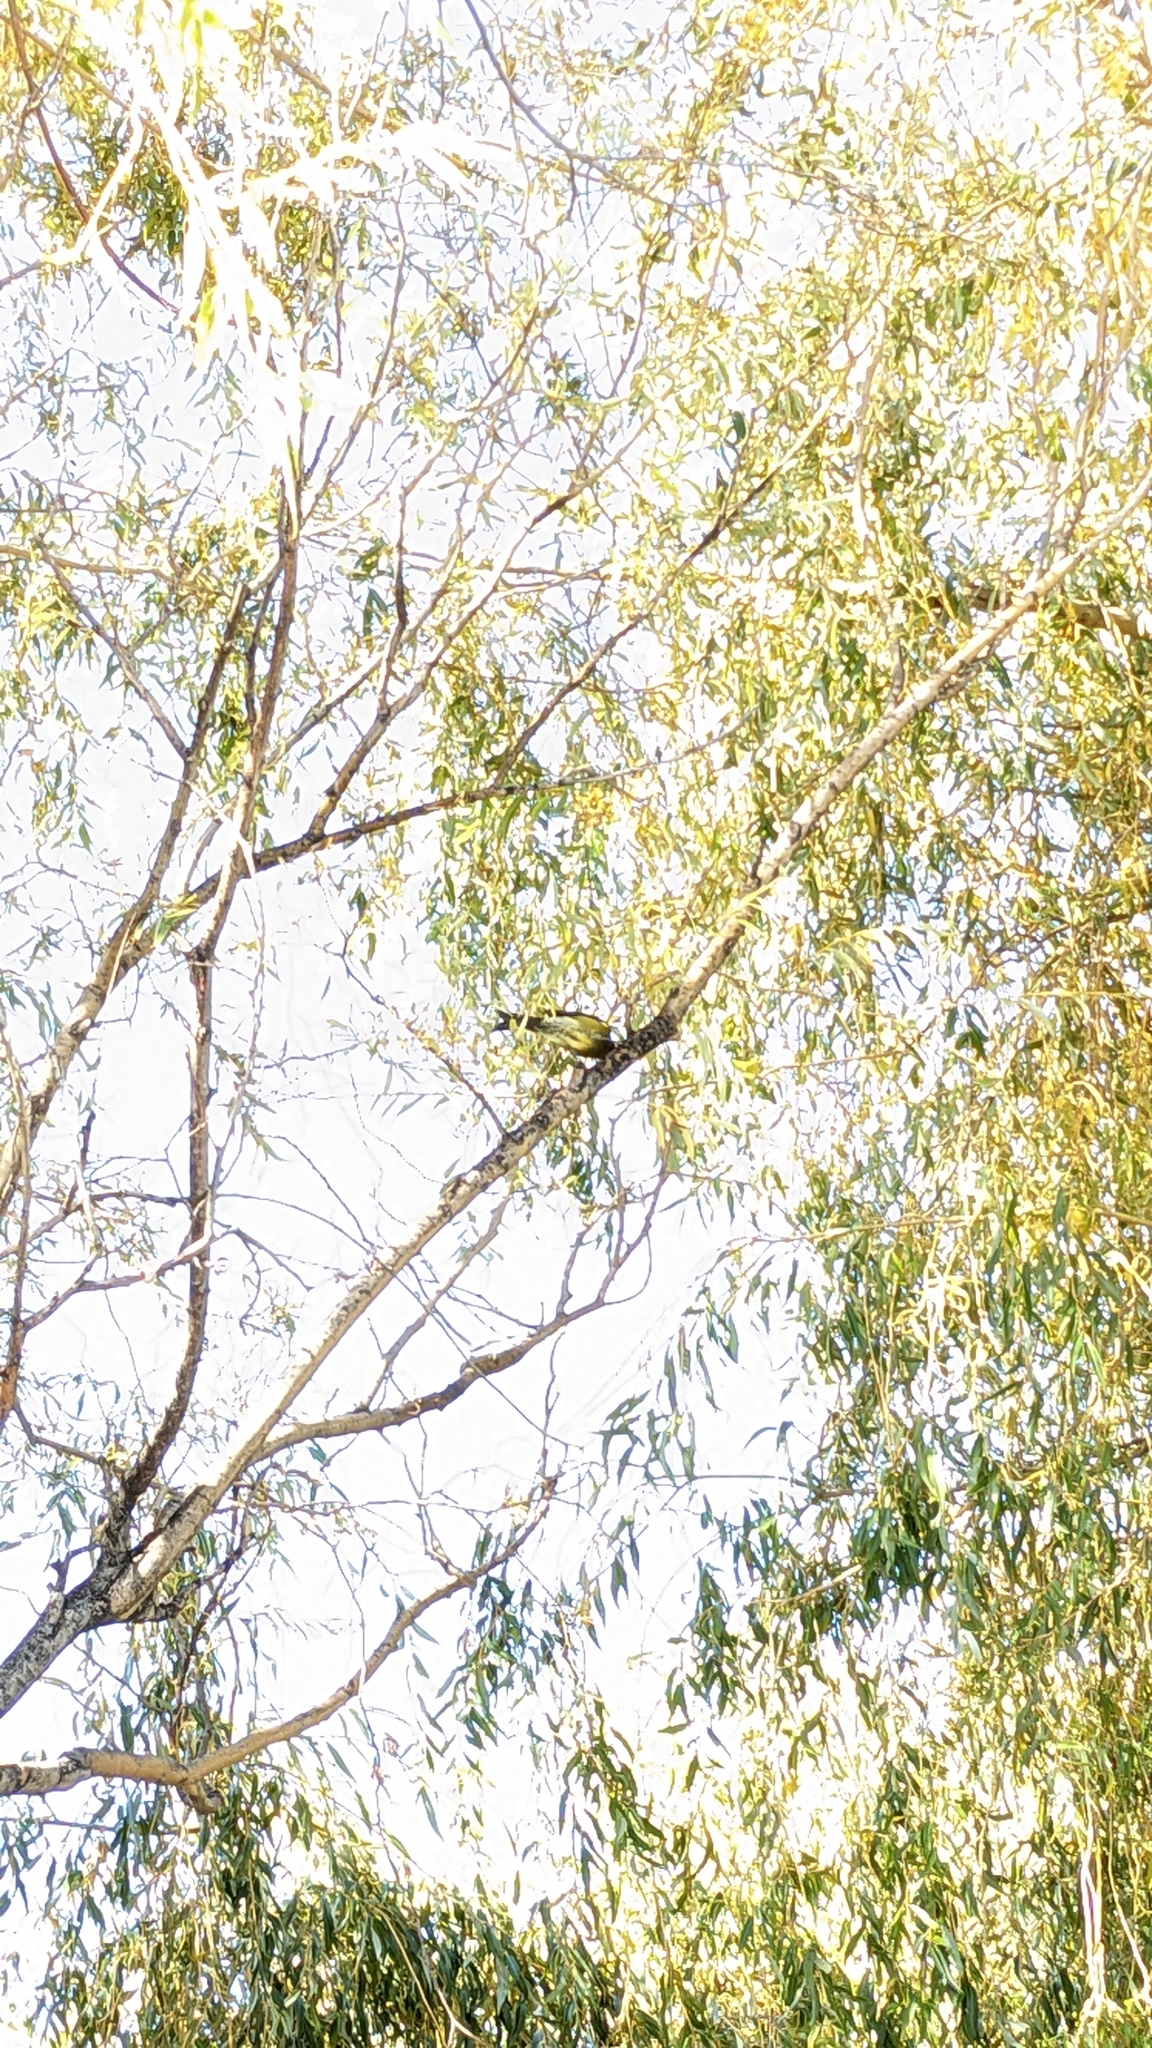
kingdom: Animalia
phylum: Chordata
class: Aves
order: Passeriformes
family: Meliphagidae
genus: Anthornis
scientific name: Anthornis melanura
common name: New zealand bellbird
